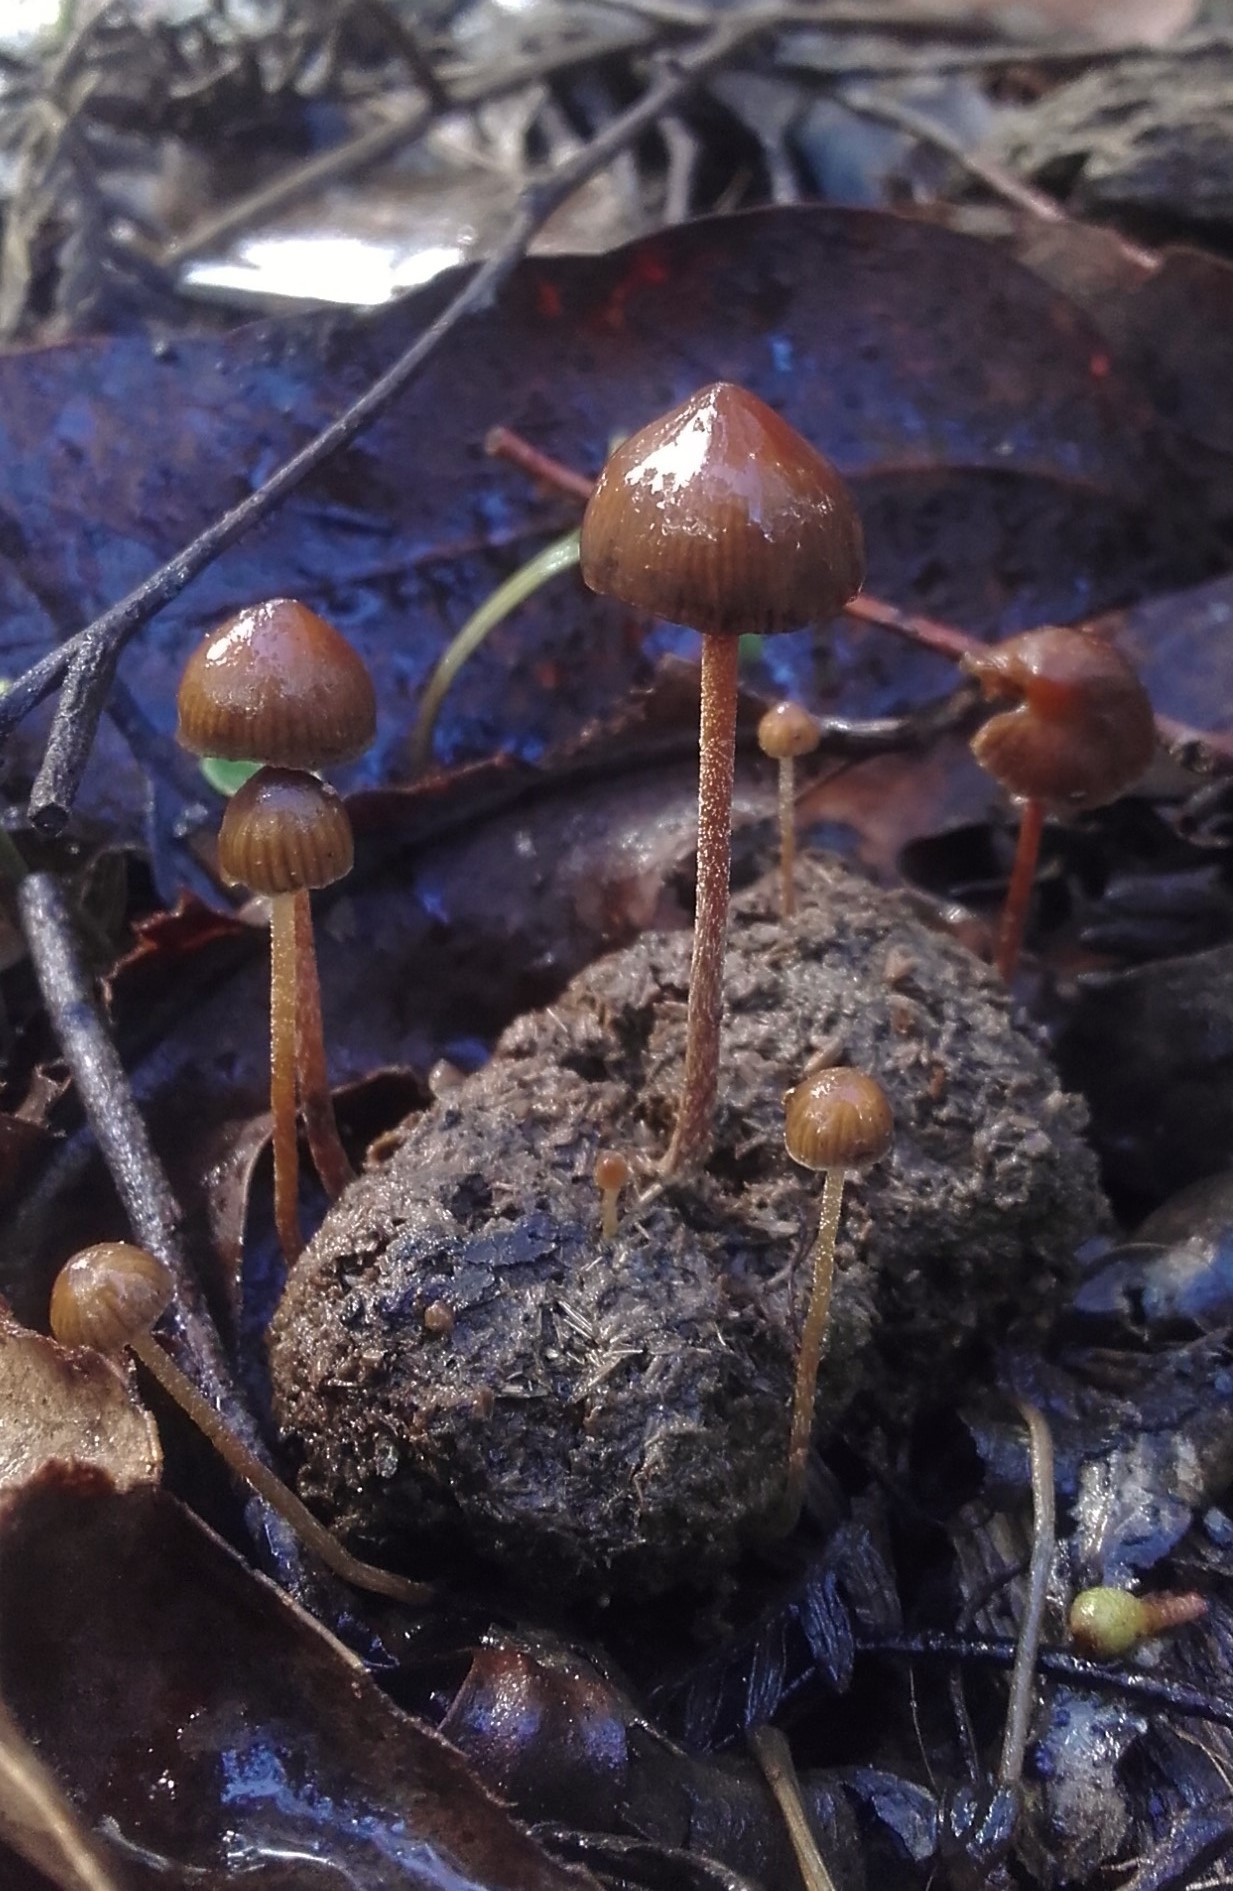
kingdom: Fungi
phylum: Basidiomycota
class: Agaricomycetes
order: Agaricales
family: Hymenogastraceae
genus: Psilocybe
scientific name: Psilocybe alutacea
